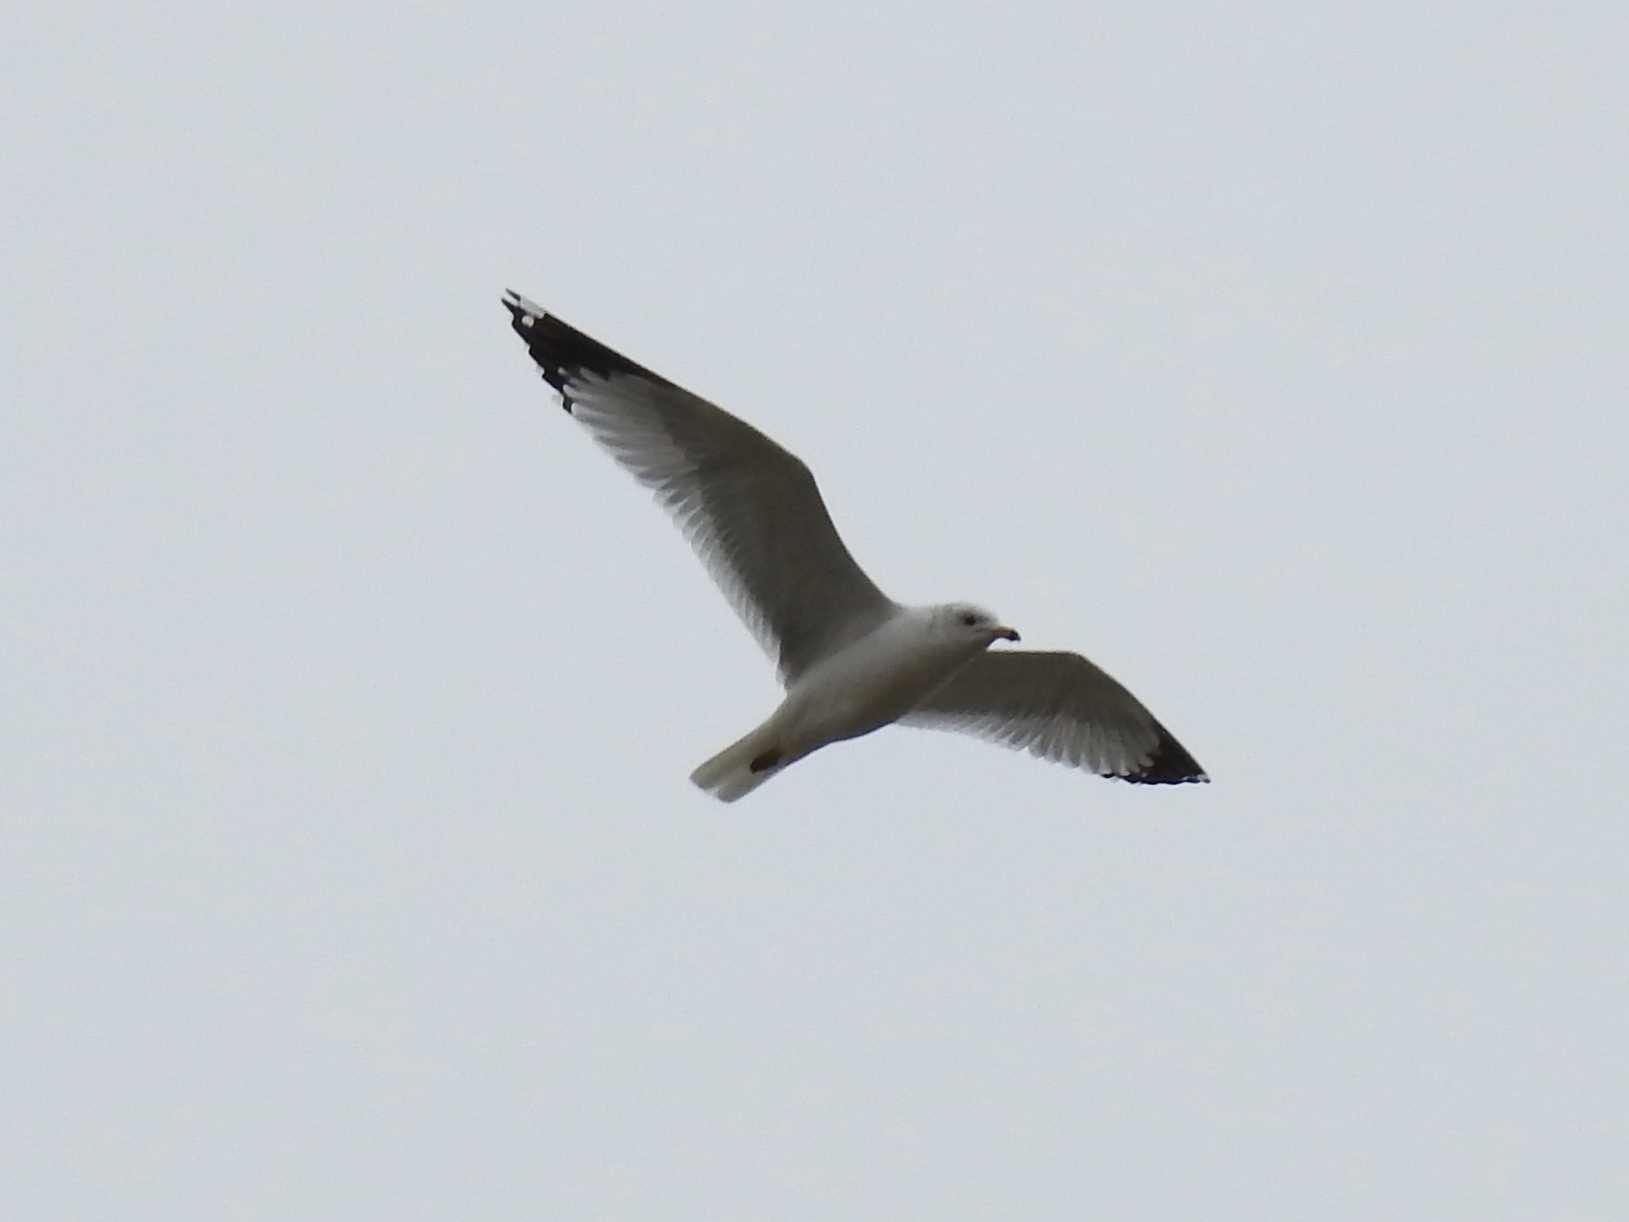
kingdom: Animalia
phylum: Chordata
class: Aves
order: Charadriiformes
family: Laridae
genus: Larus
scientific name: Larus delawarensis
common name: Ring-billed gull
